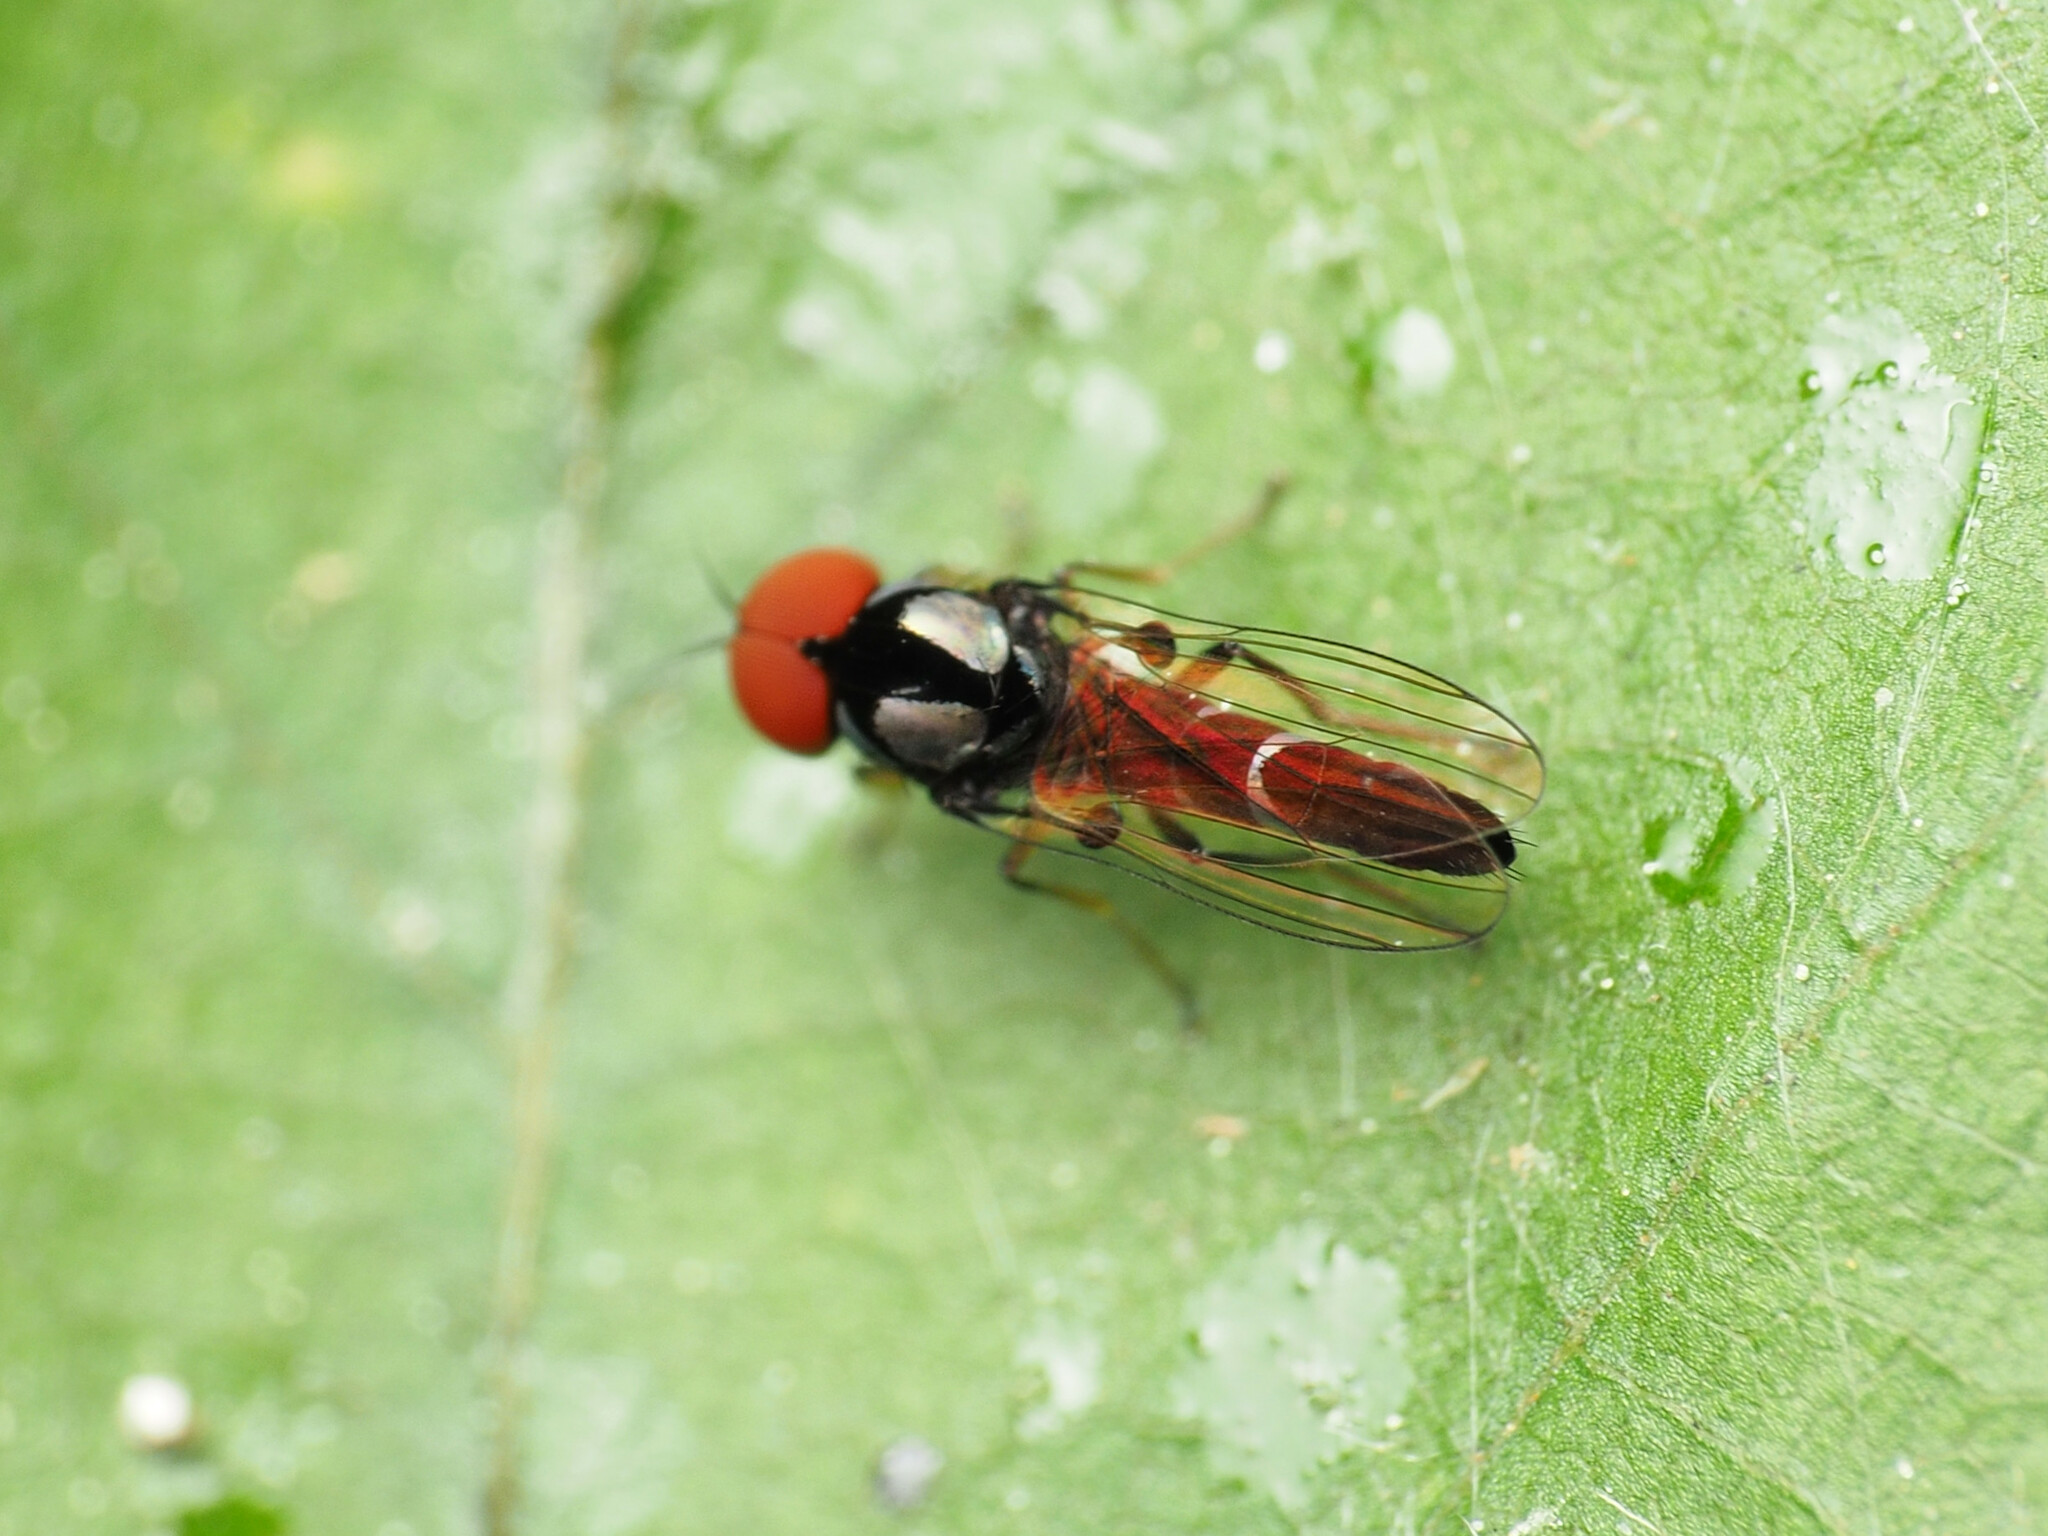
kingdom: Animalia
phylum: Arthropoda
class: Insecta
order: Diptera
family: Platypezidae
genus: Bertamyia
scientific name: Bertamyia notata
